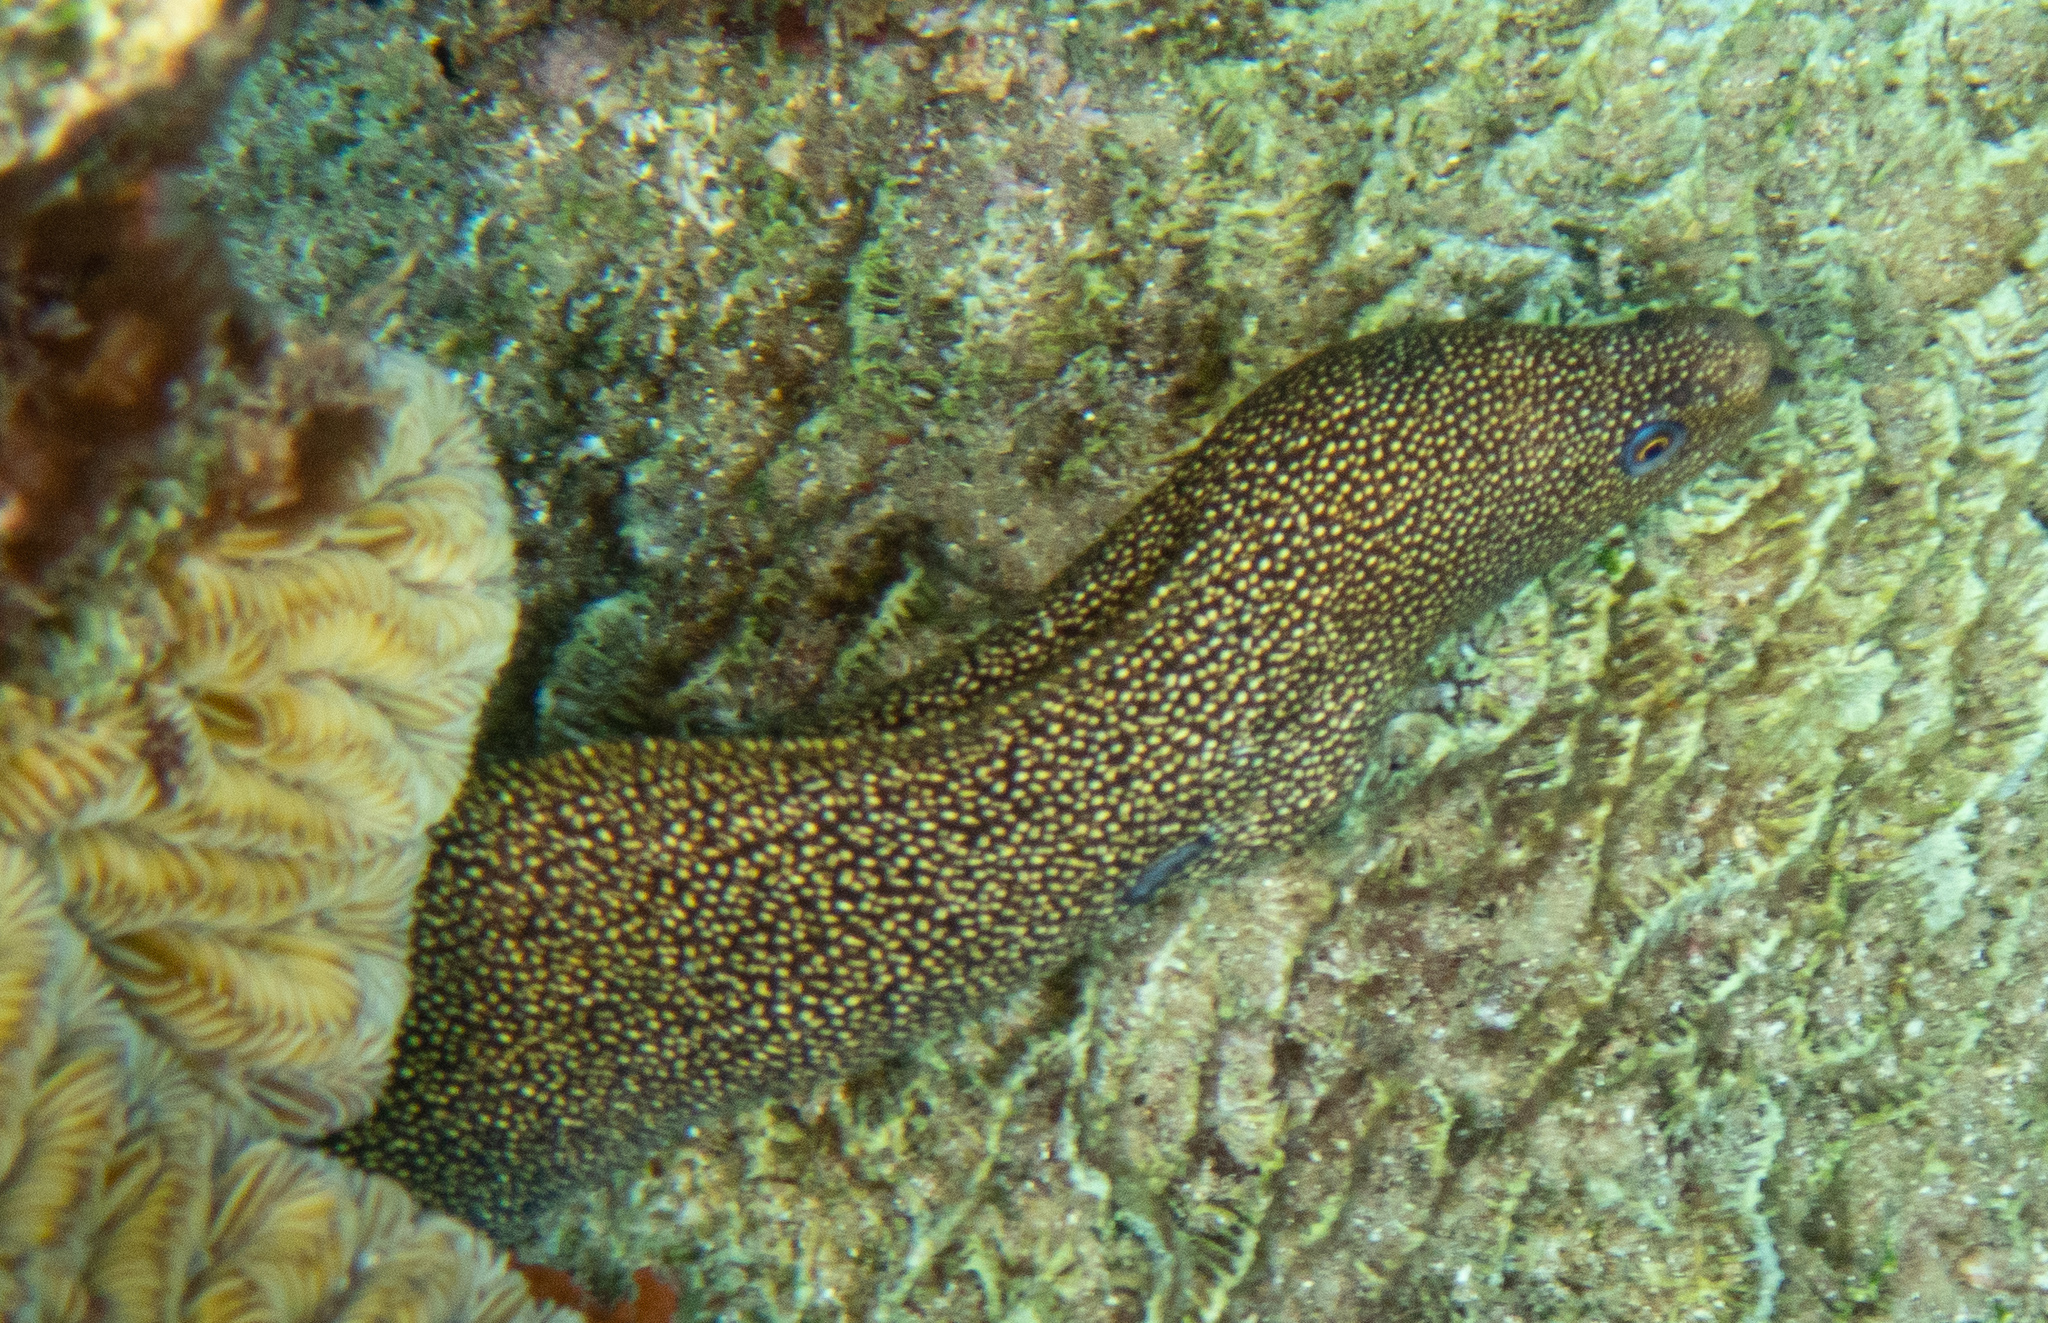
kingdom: Animalia
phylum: Chordata
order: Anguilliformes
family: Muraenidae
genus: Gymnothorax
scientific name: Gymnothorax miliaris
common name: Goldentail moray
